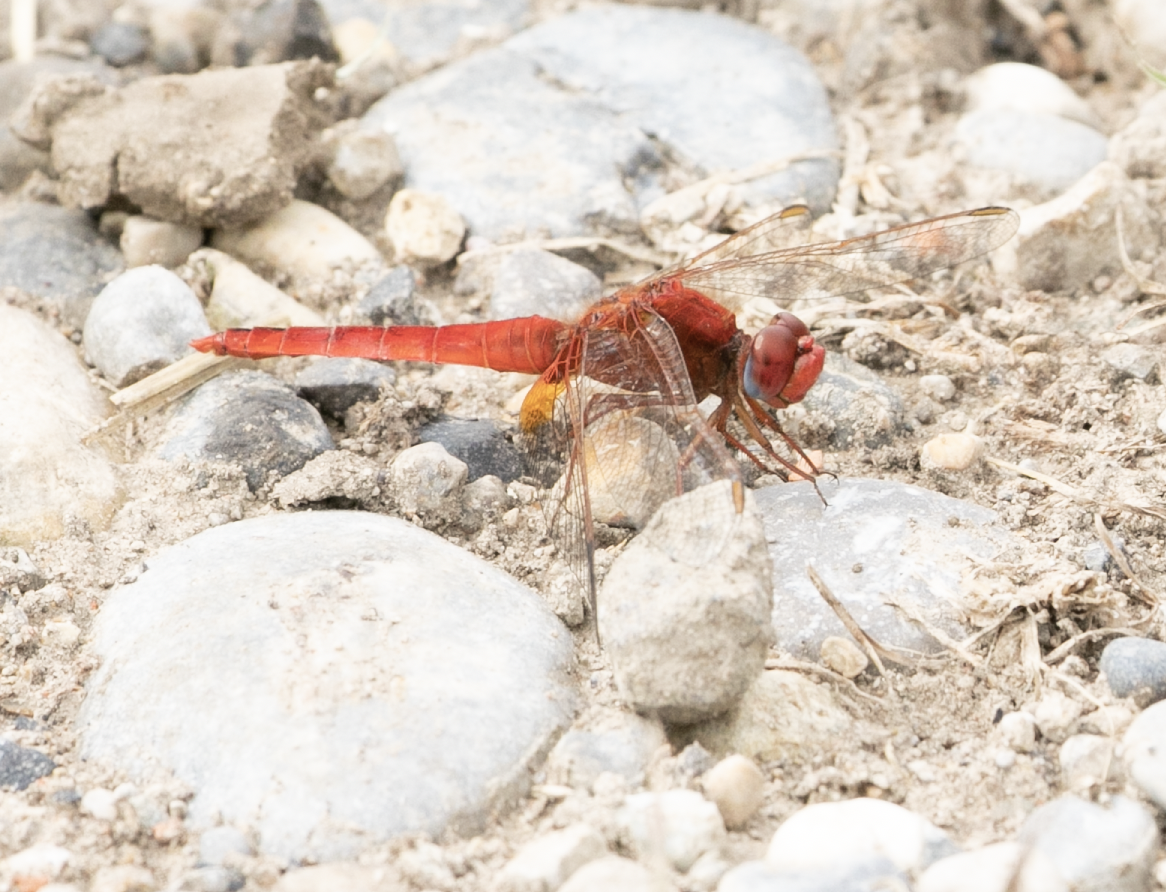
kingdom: Animalia
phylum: Arthropoda
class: Insecta
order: Odonata
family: Libellulidae
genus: Crocothemis
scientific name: Crocothemis erythraea
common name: Scarlet dragonfly
